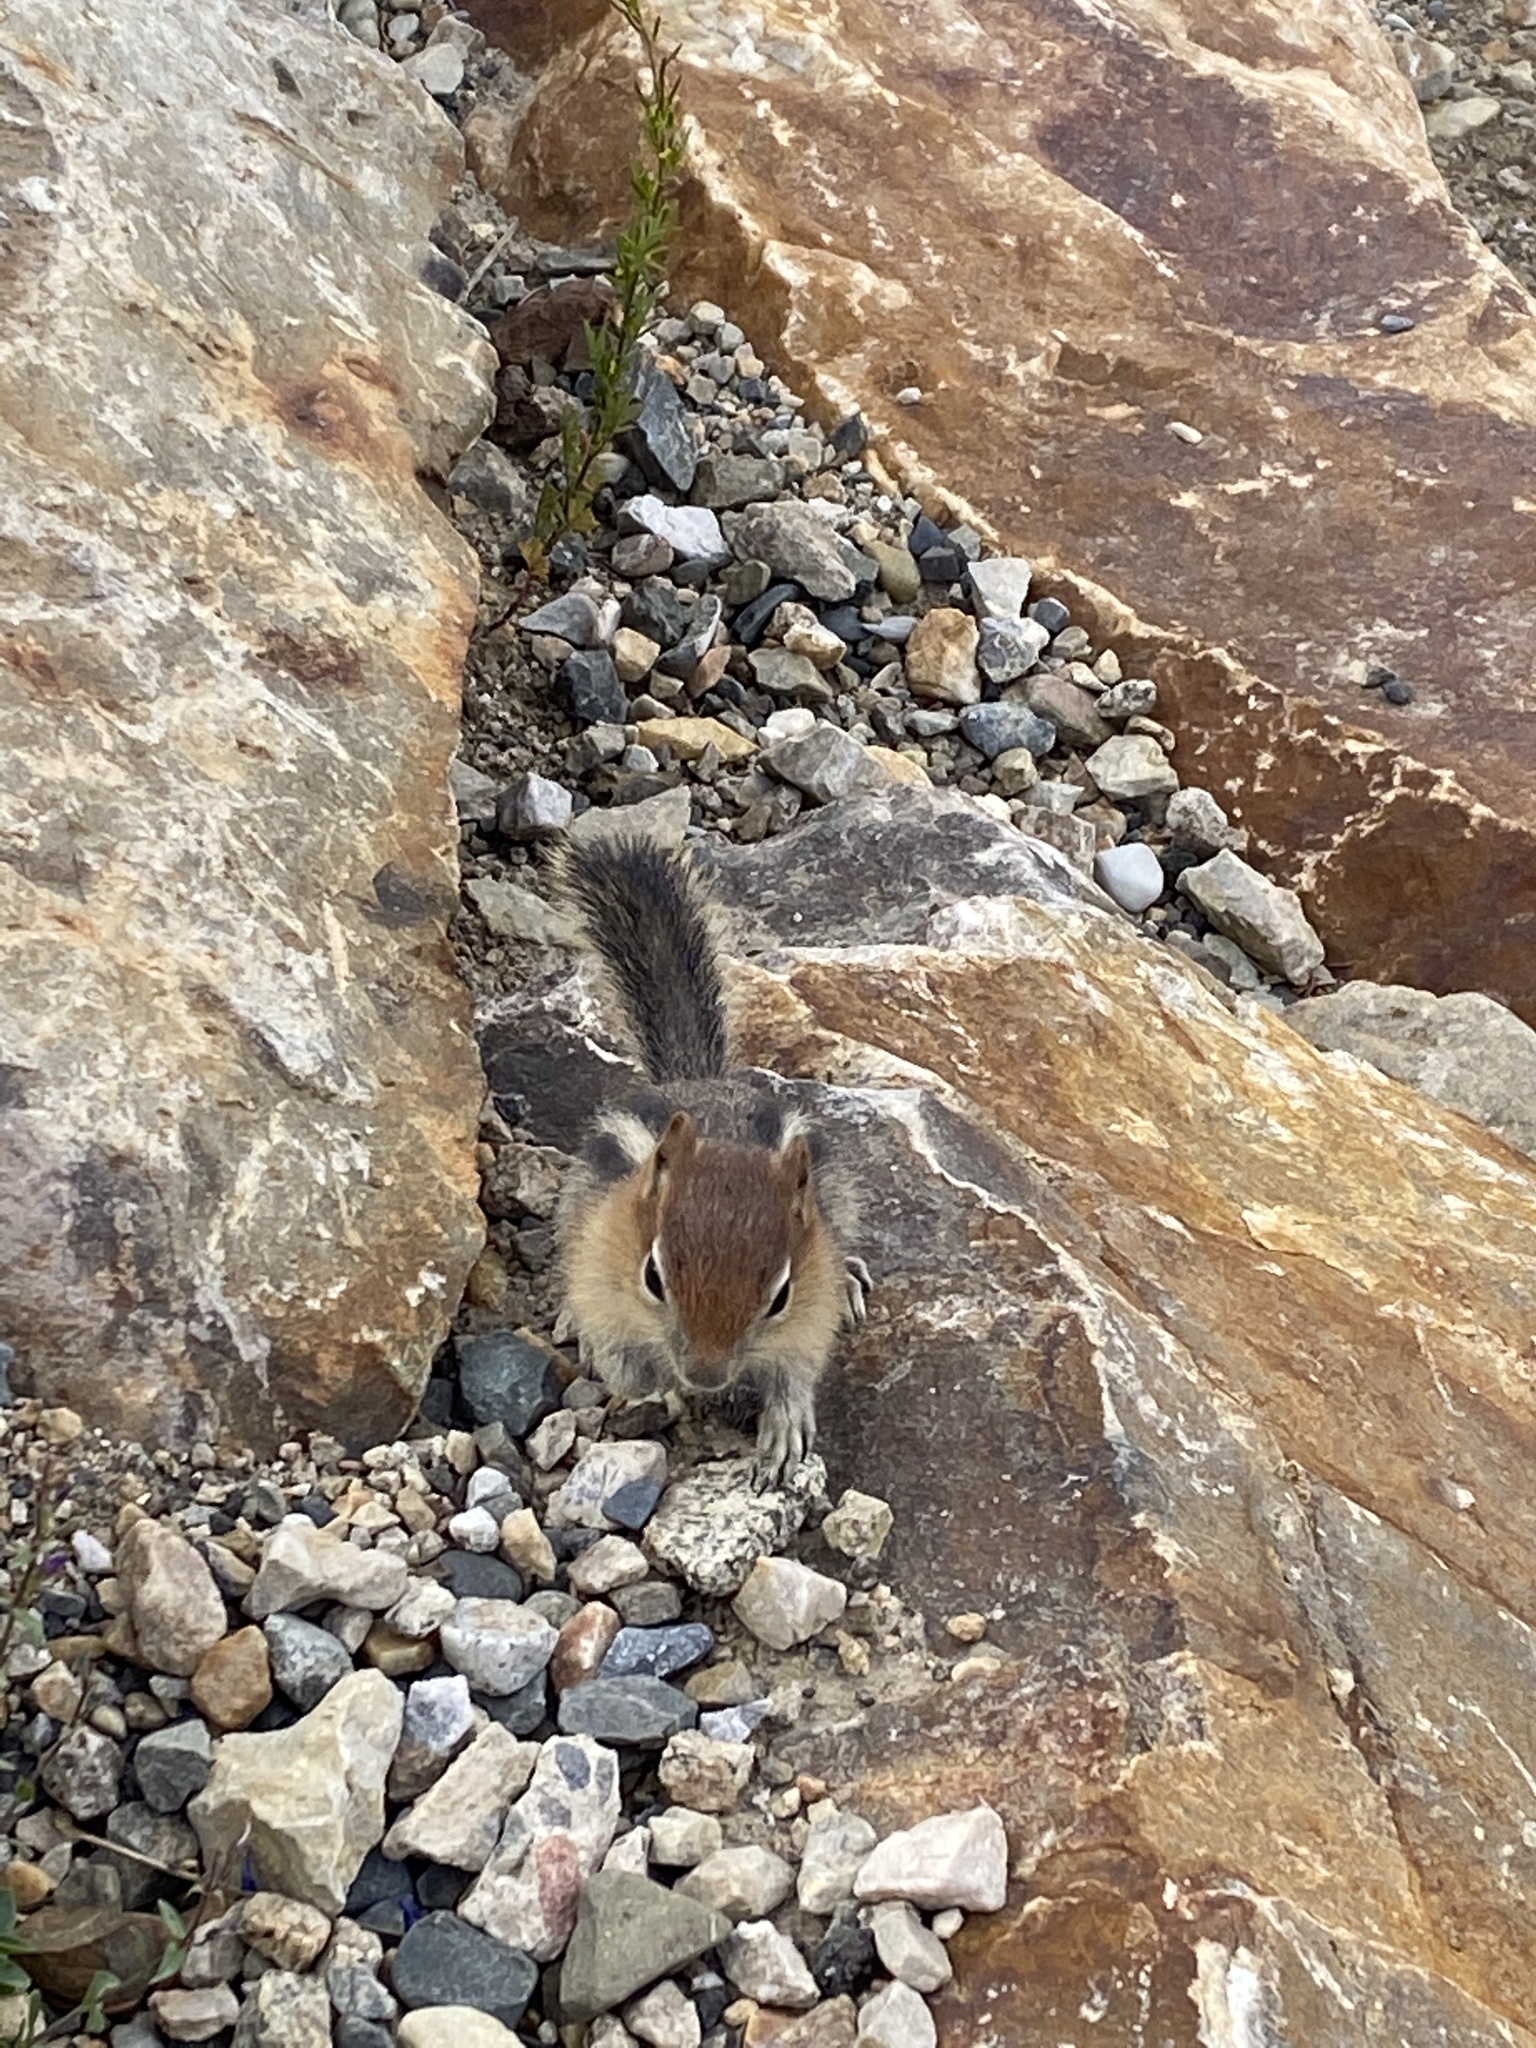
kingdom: Animalia
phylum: Chordata
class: Mammalia
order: Rodentia
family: Sciuridae
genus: Callospermophilus
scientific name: Callospermophilus lateralis
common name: Golden-mantled ground squirrel
